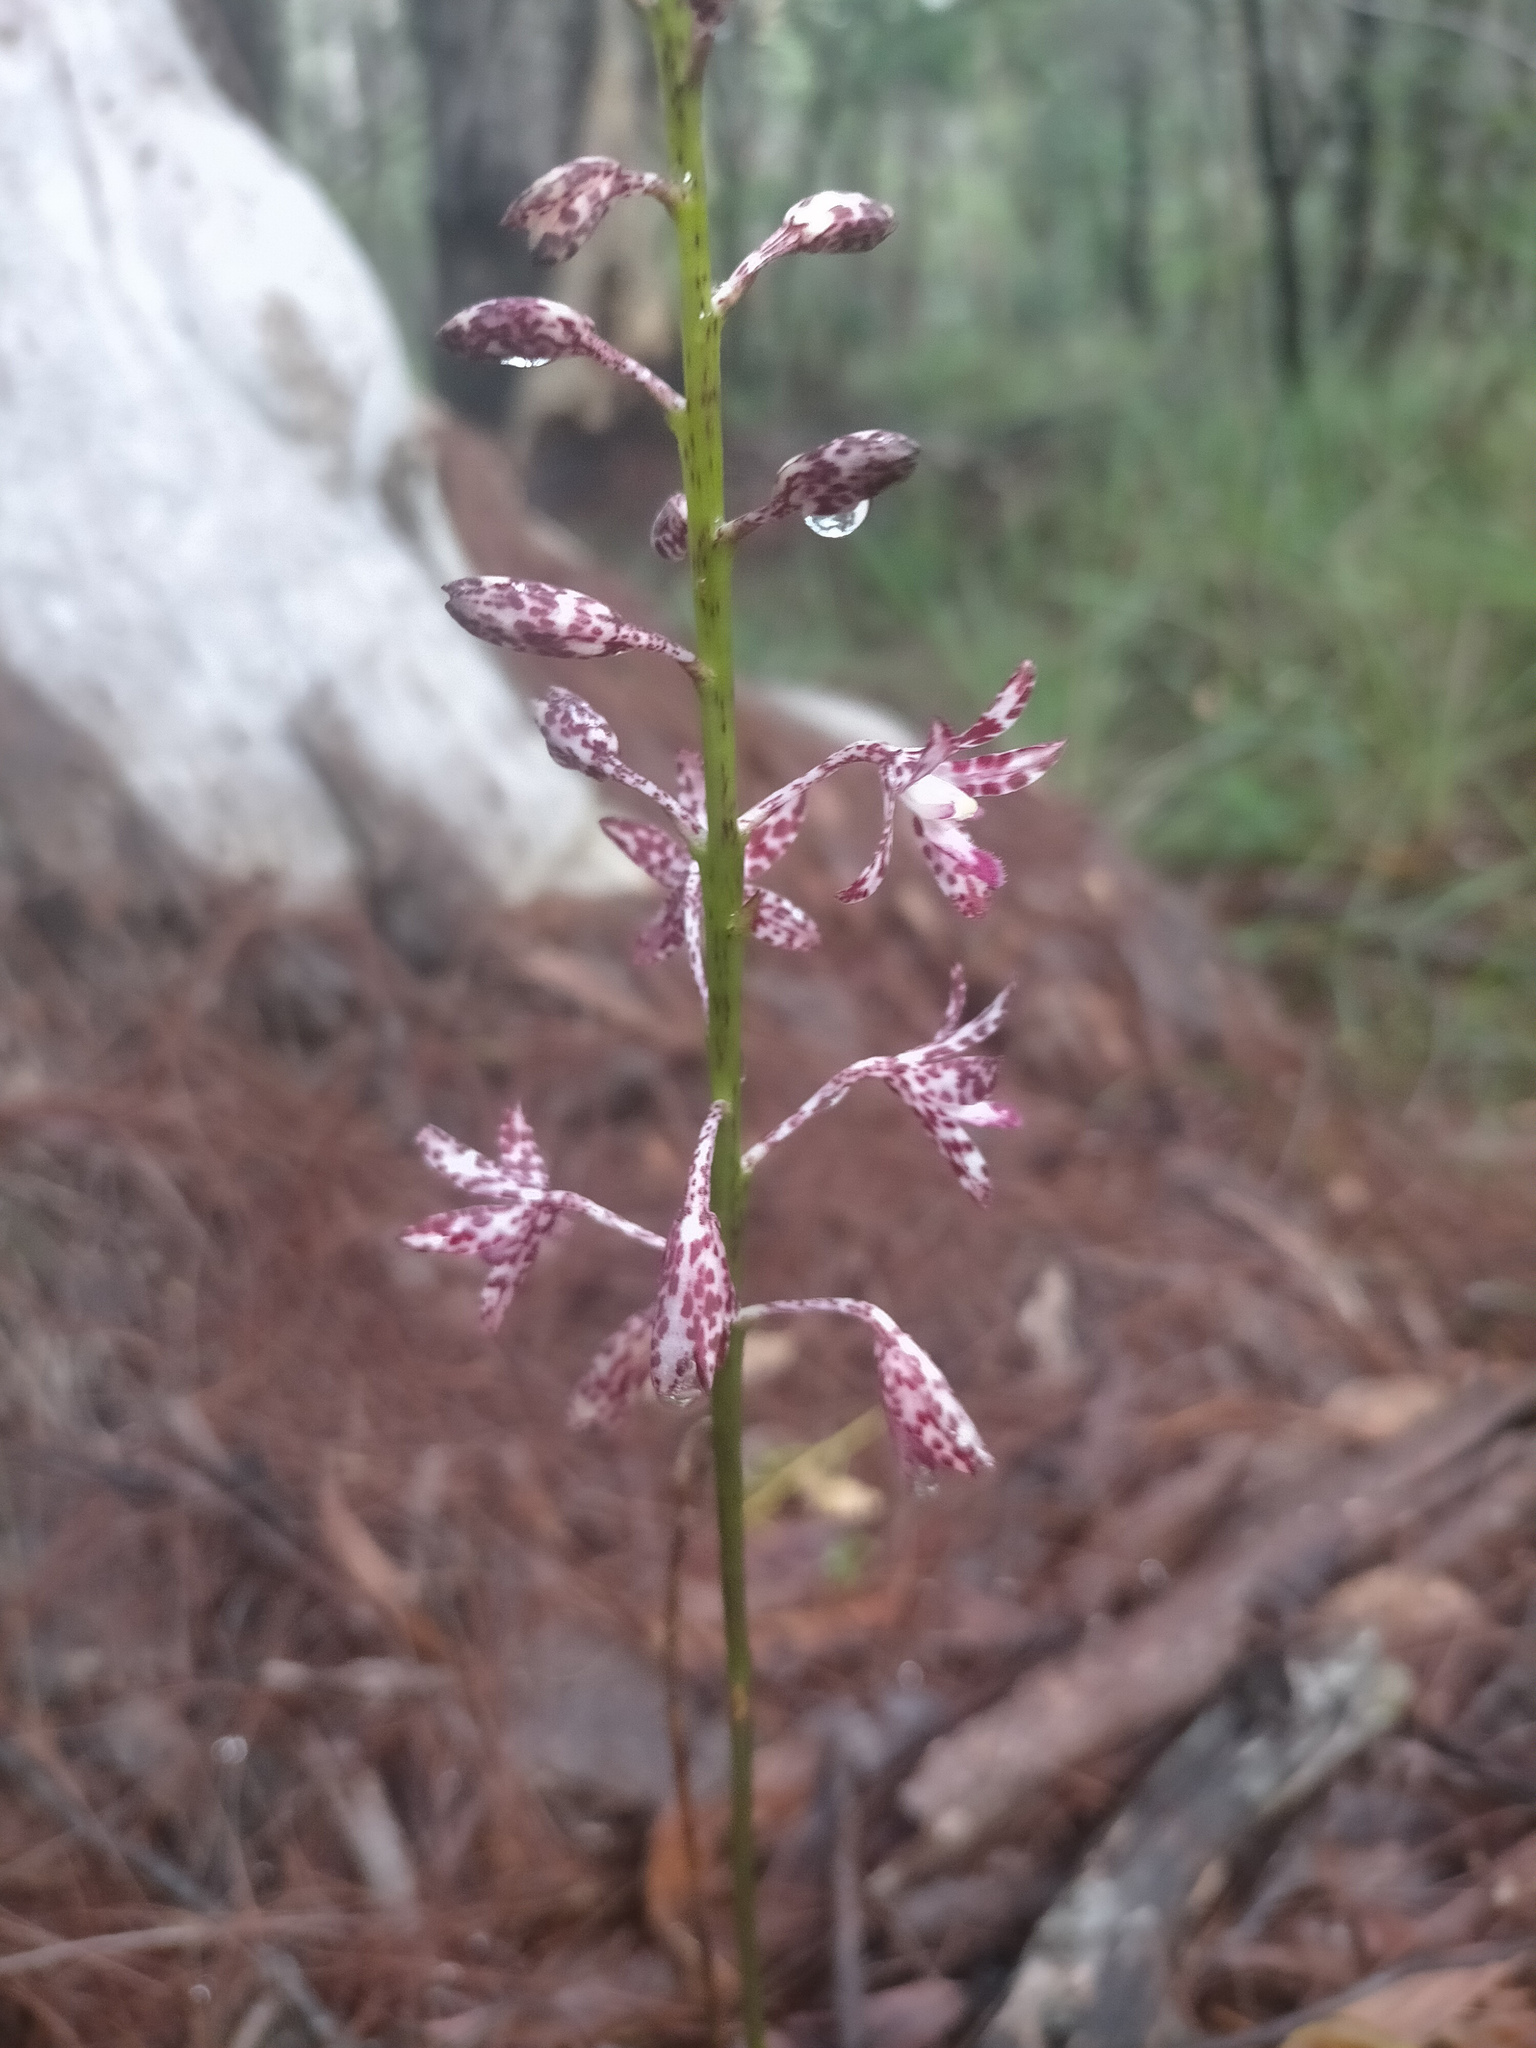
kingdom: Plantae
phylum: Tracheophyta
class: Liliopsida
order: Asparagales
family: Orchidaceae
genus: Dipodium
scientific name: Dipodium variegatum
